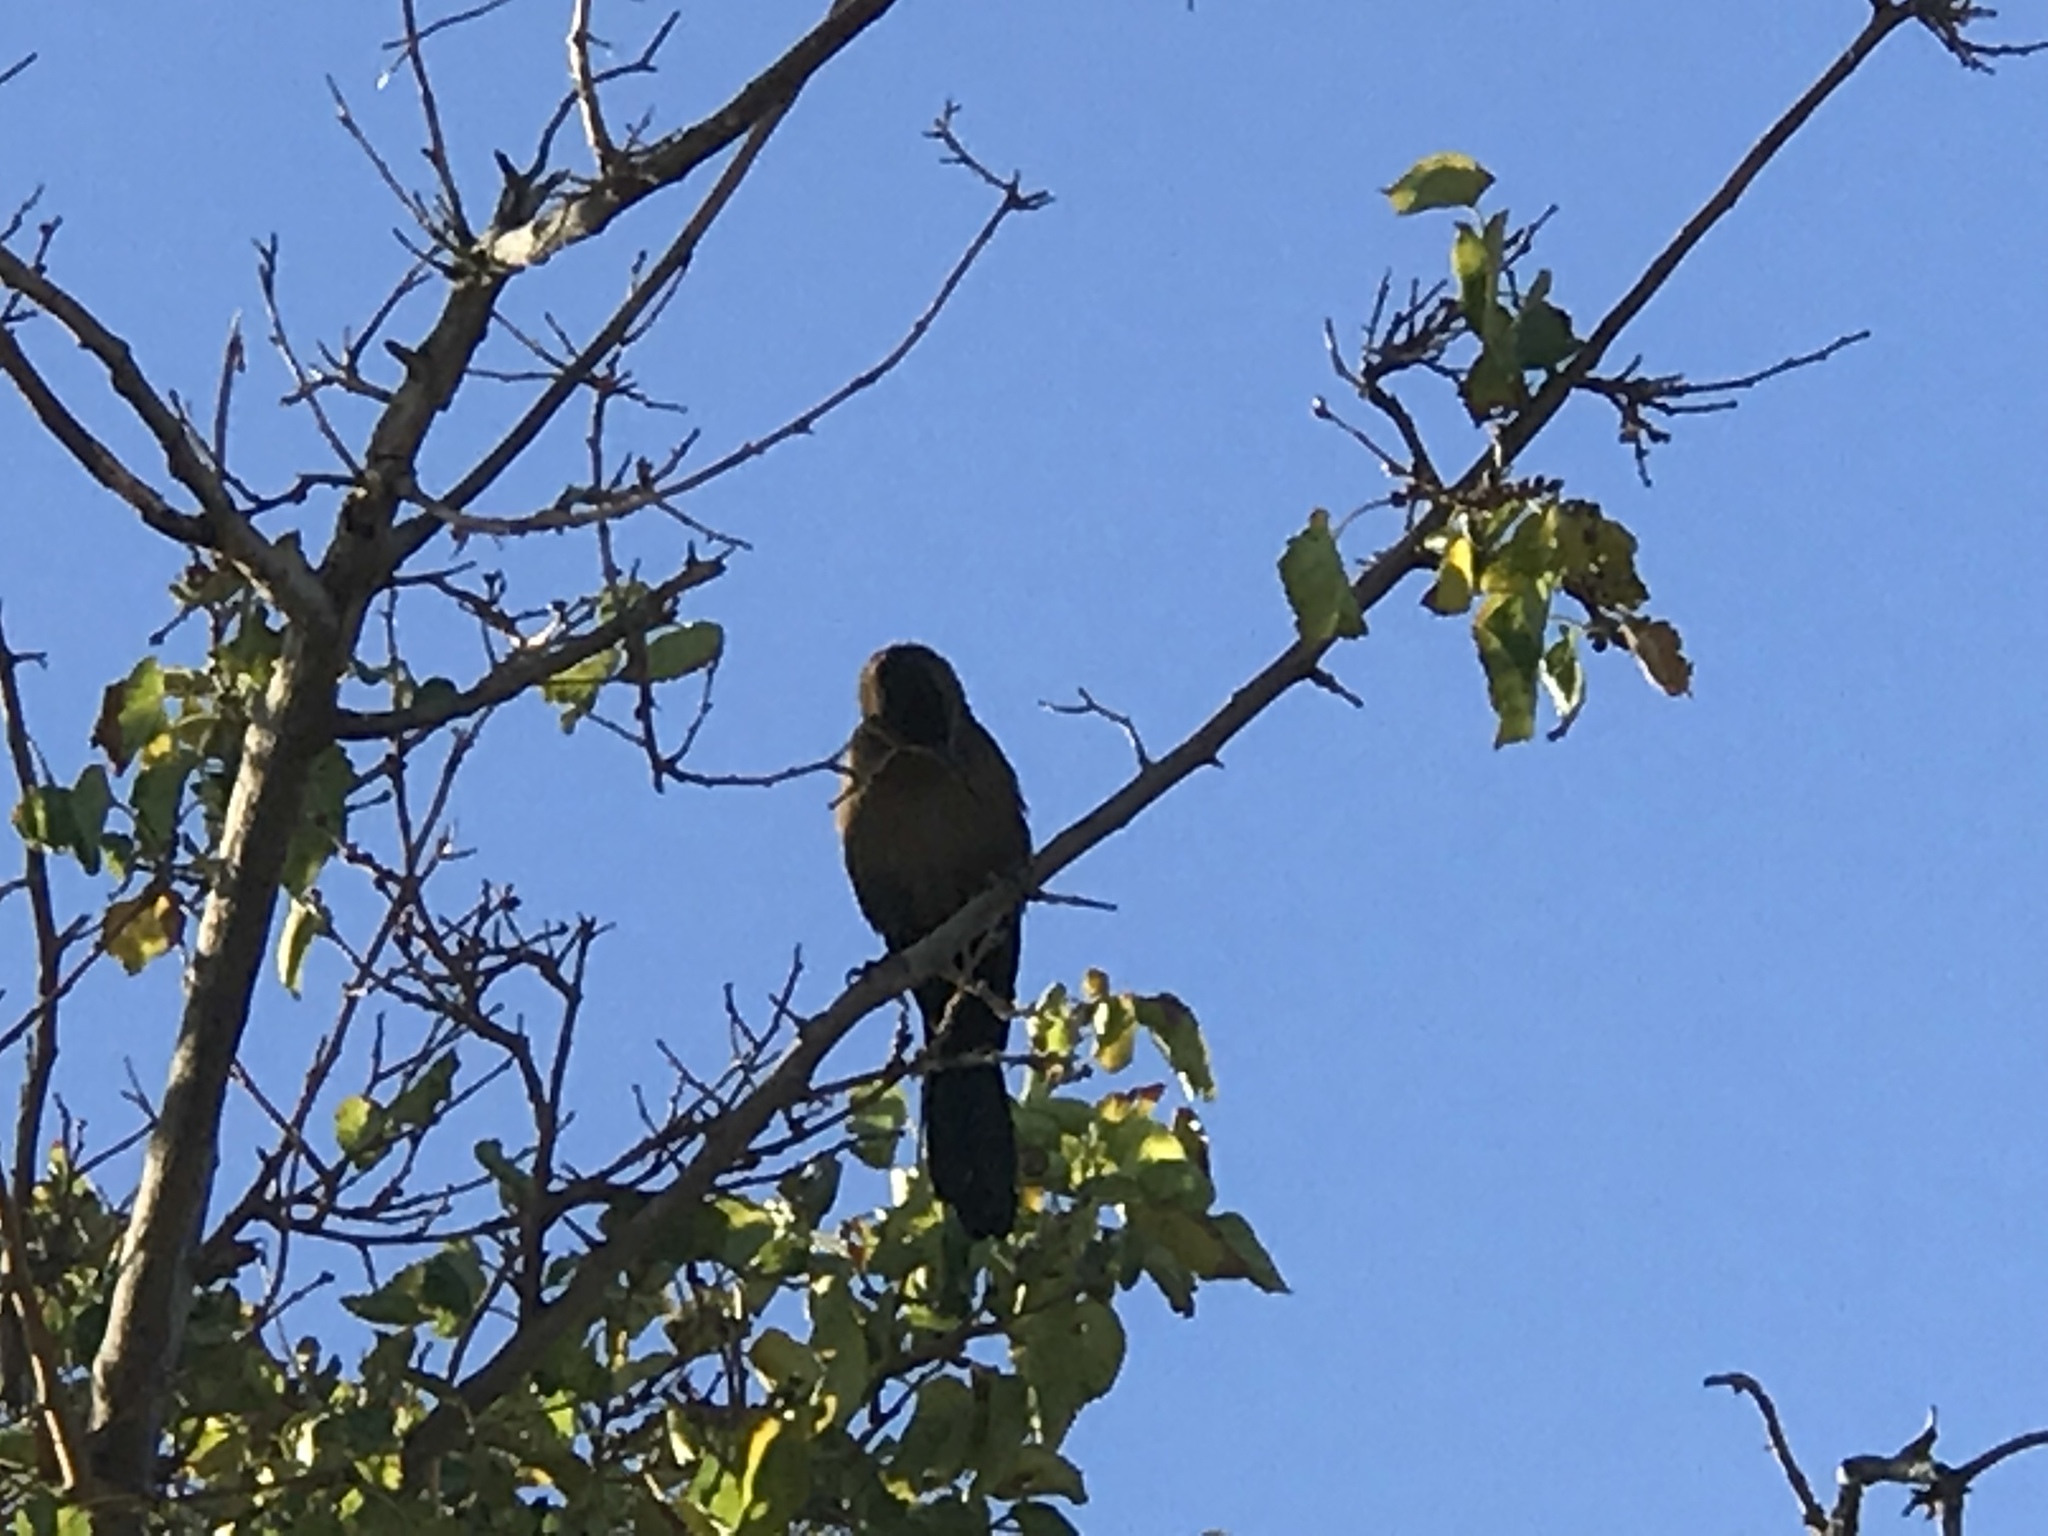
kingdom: Animalia
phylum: Chordata
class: Aves
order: Passeriformes
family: Icteridae
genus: Quiscalus
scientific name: Quiscalus mexicanus
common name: Great-tailed grackle
